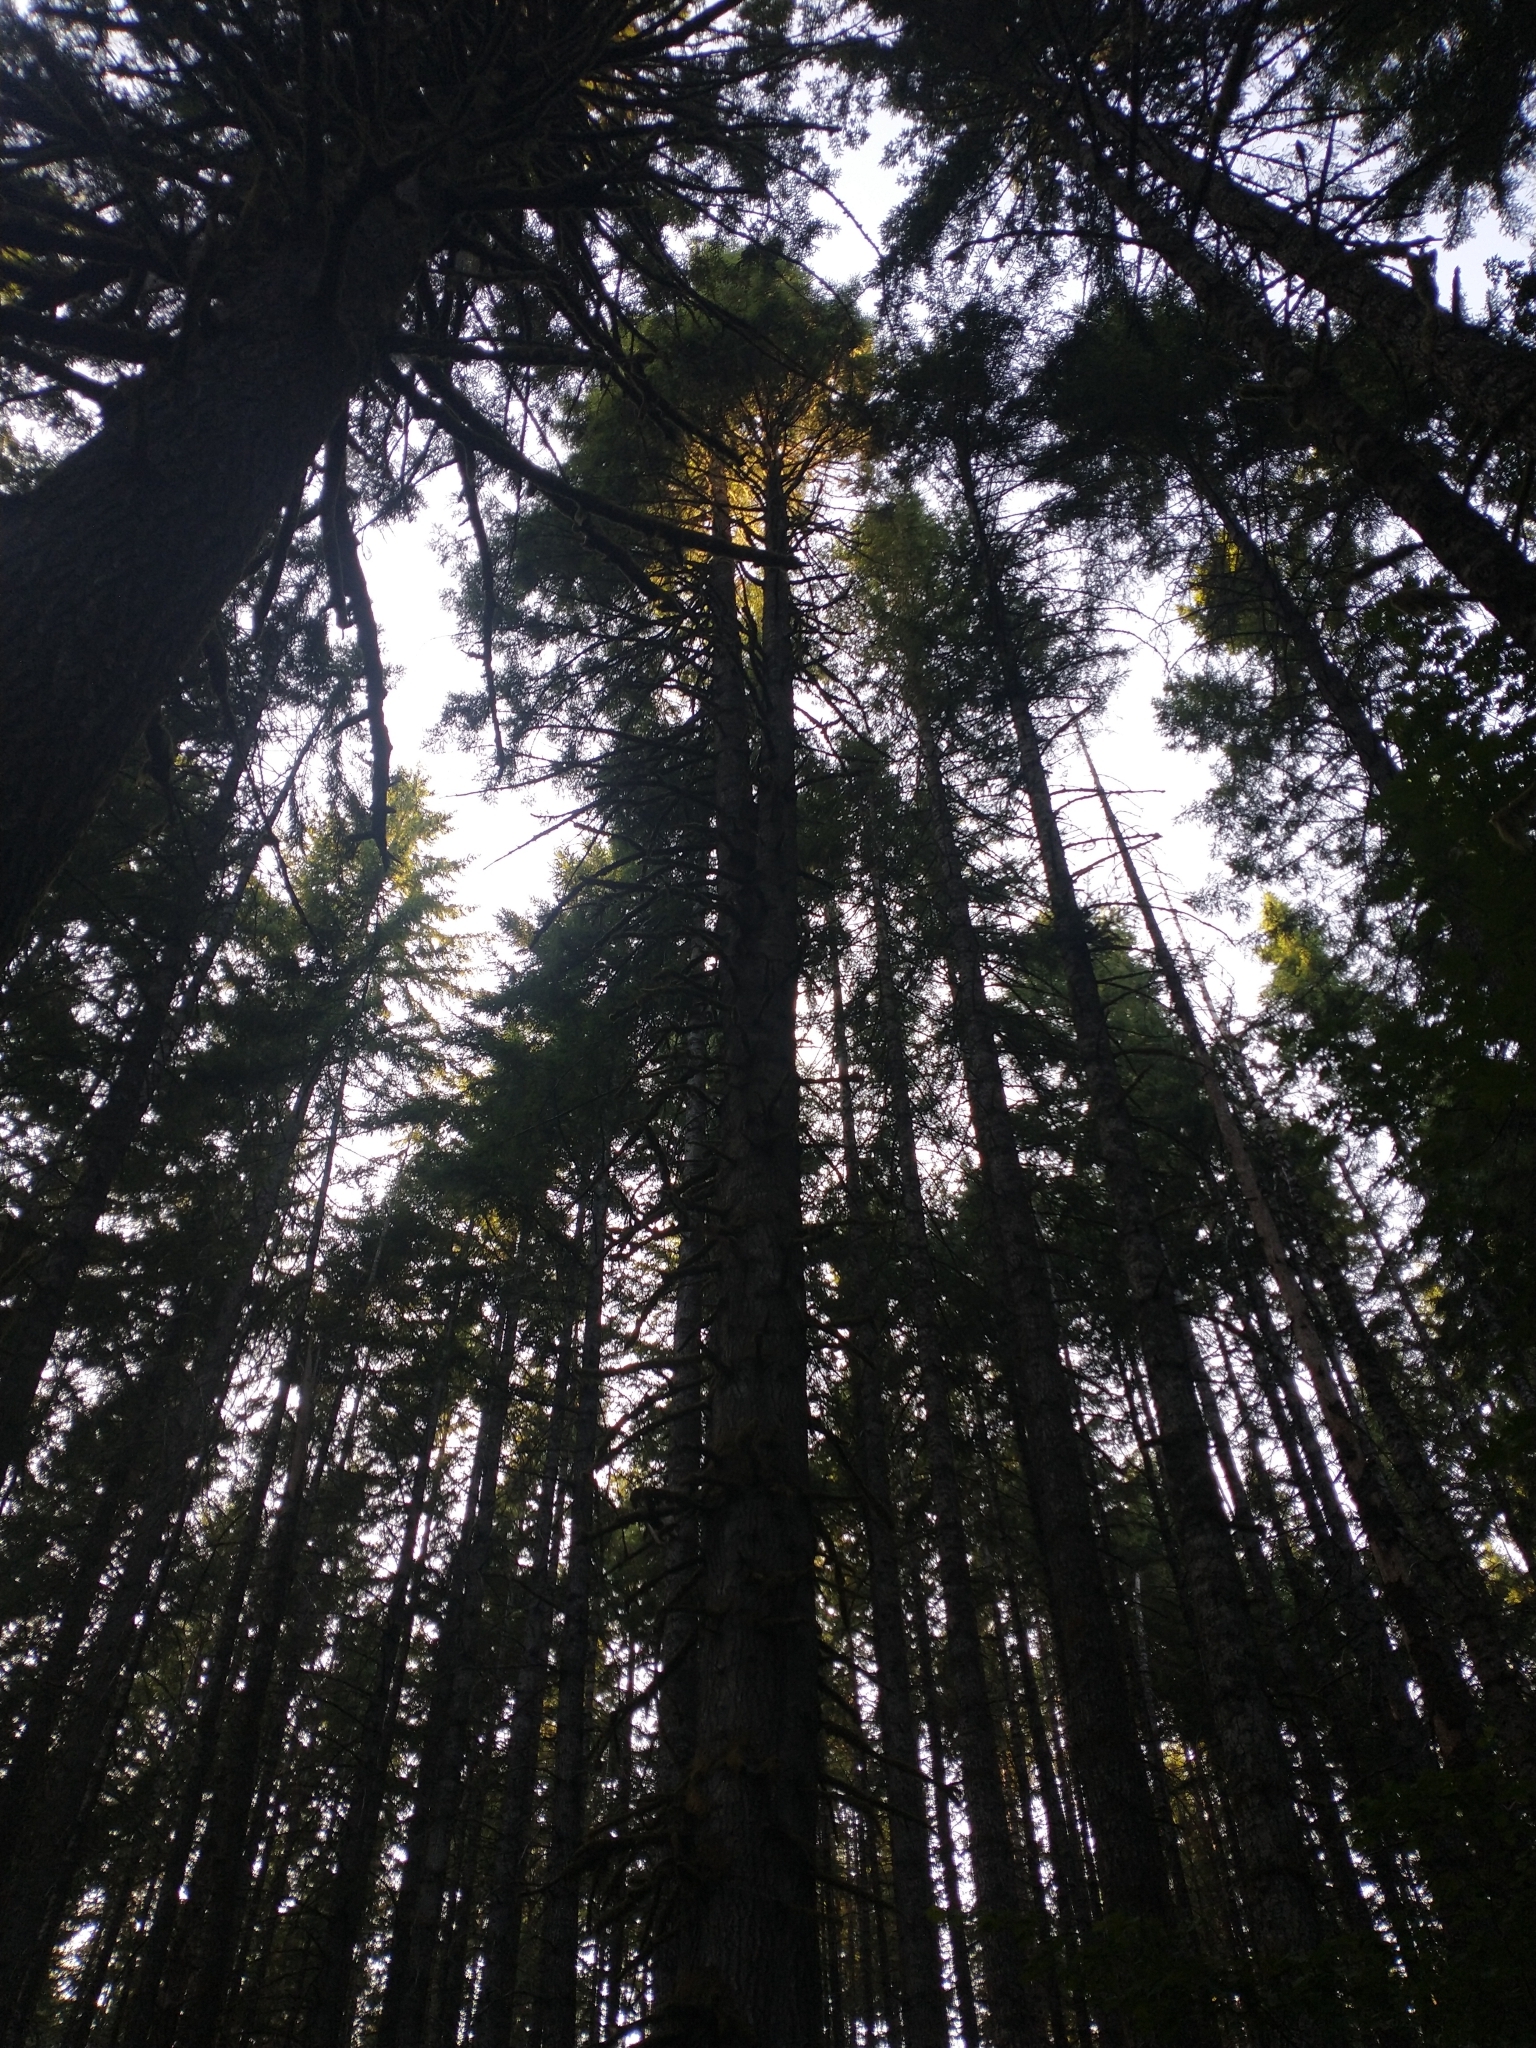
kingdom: Plantae
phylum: Tracheophyta
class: Pinopsida
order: Pinales
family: Pinaceae
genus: Abies
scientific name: Abies grandis
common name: Giant fir
